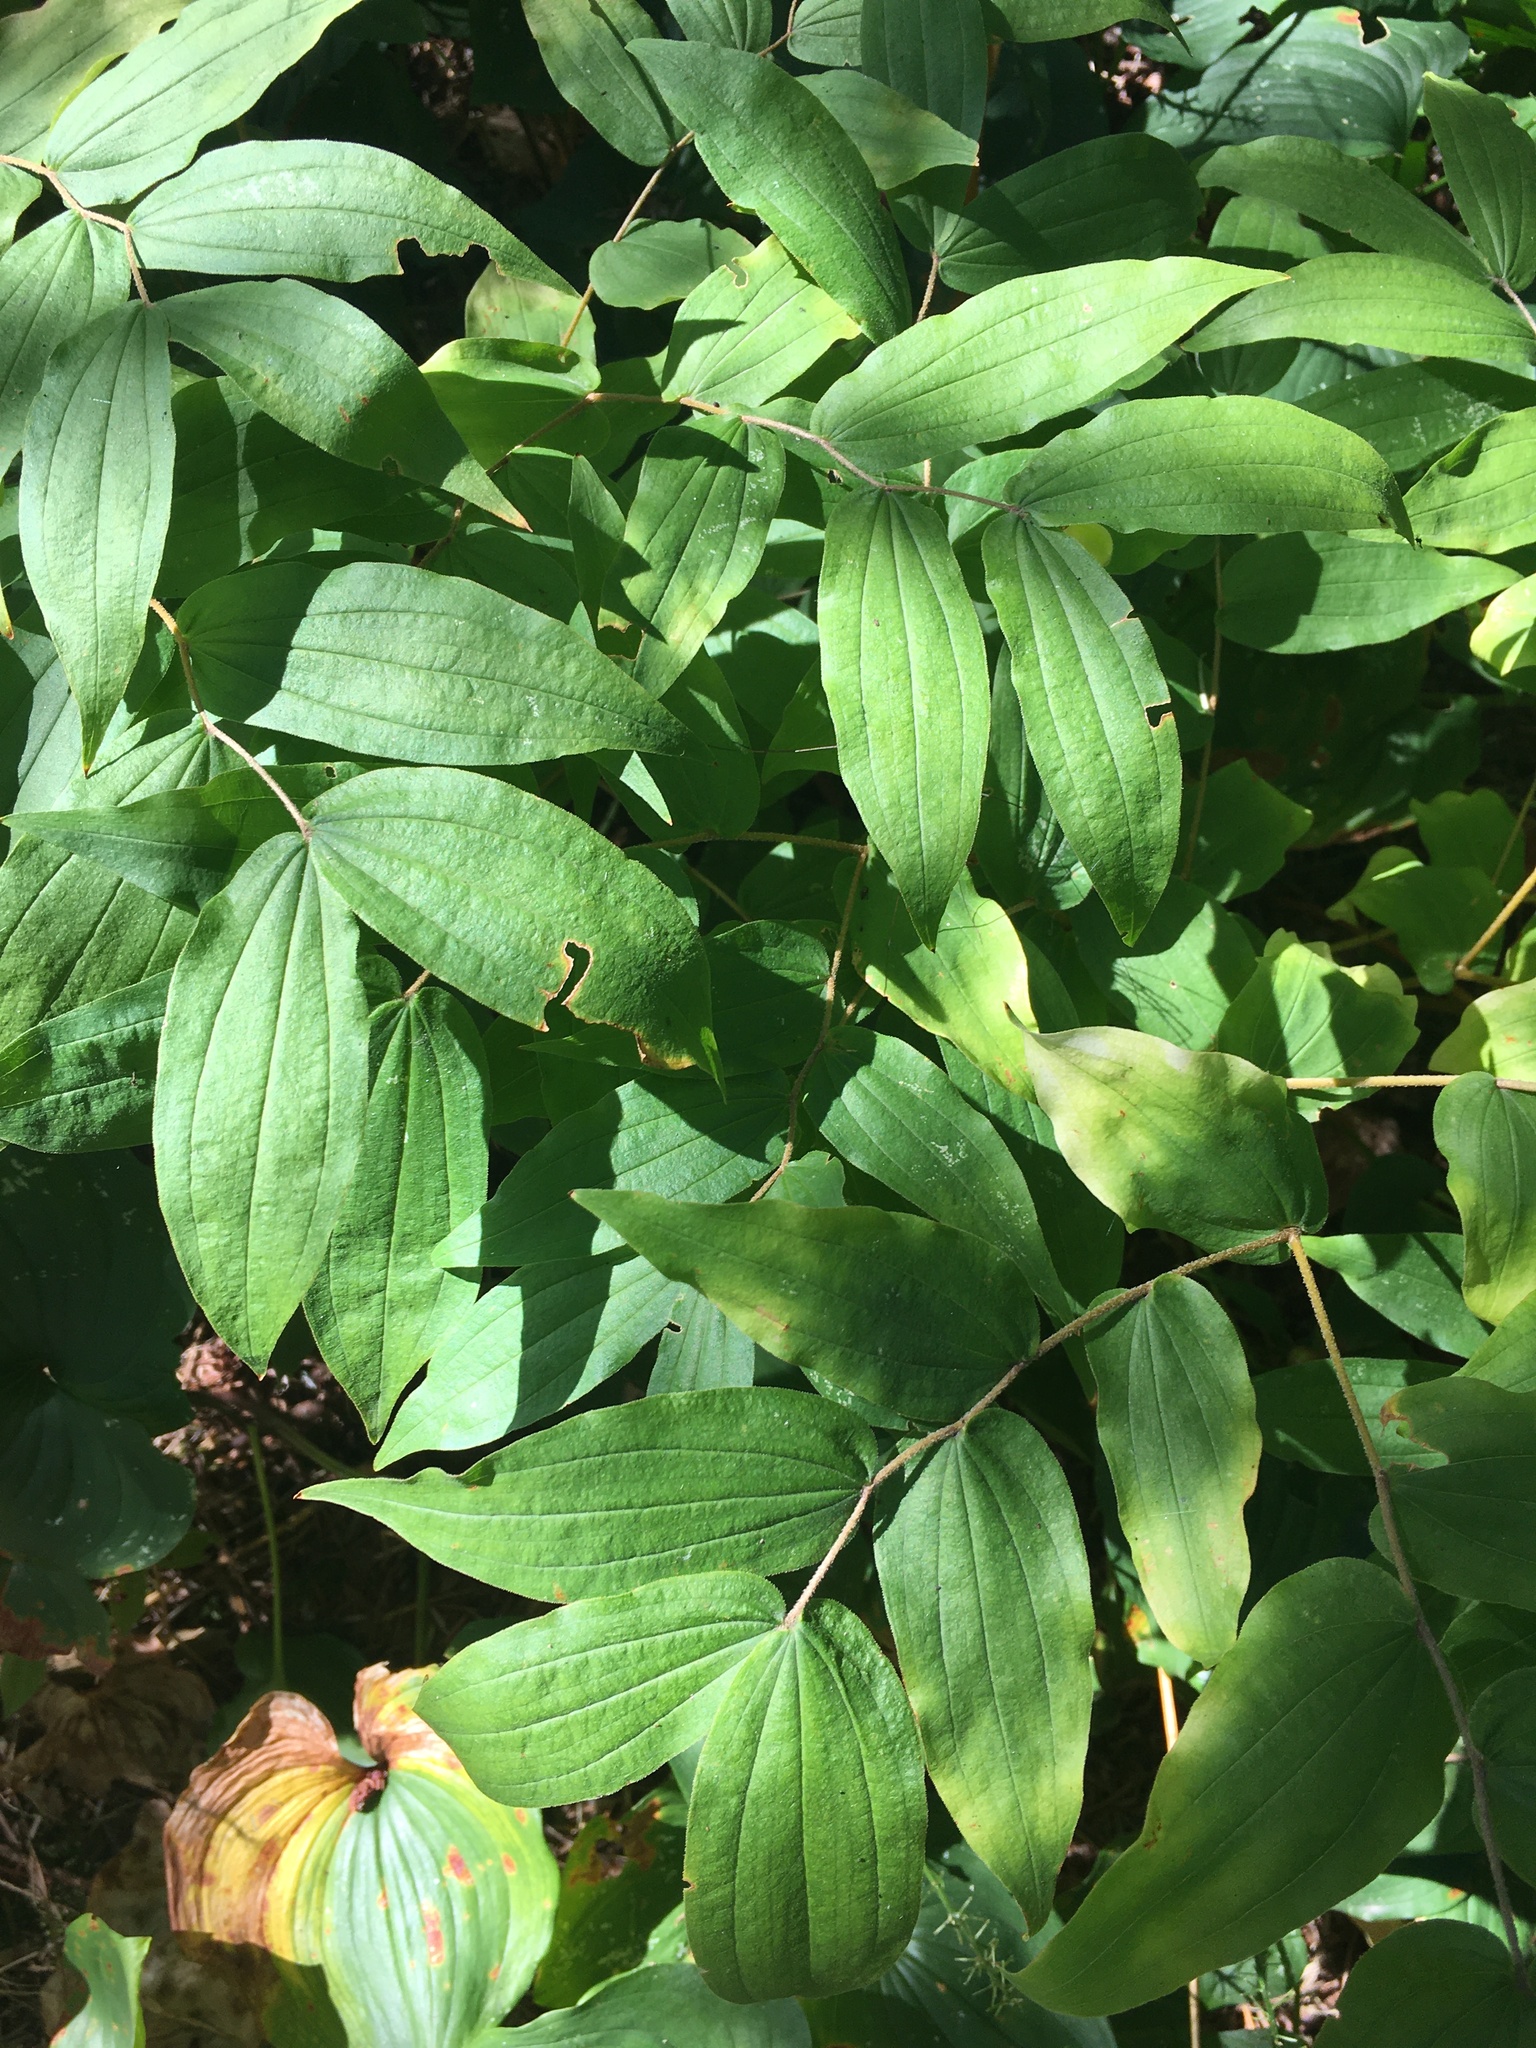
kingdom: Plantae
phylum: Tracheophyta
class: Liliopsida
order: Liliales
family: Liliaceae
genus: Prosartes
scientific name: Prosartes hookeri
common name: Fairy-bells
